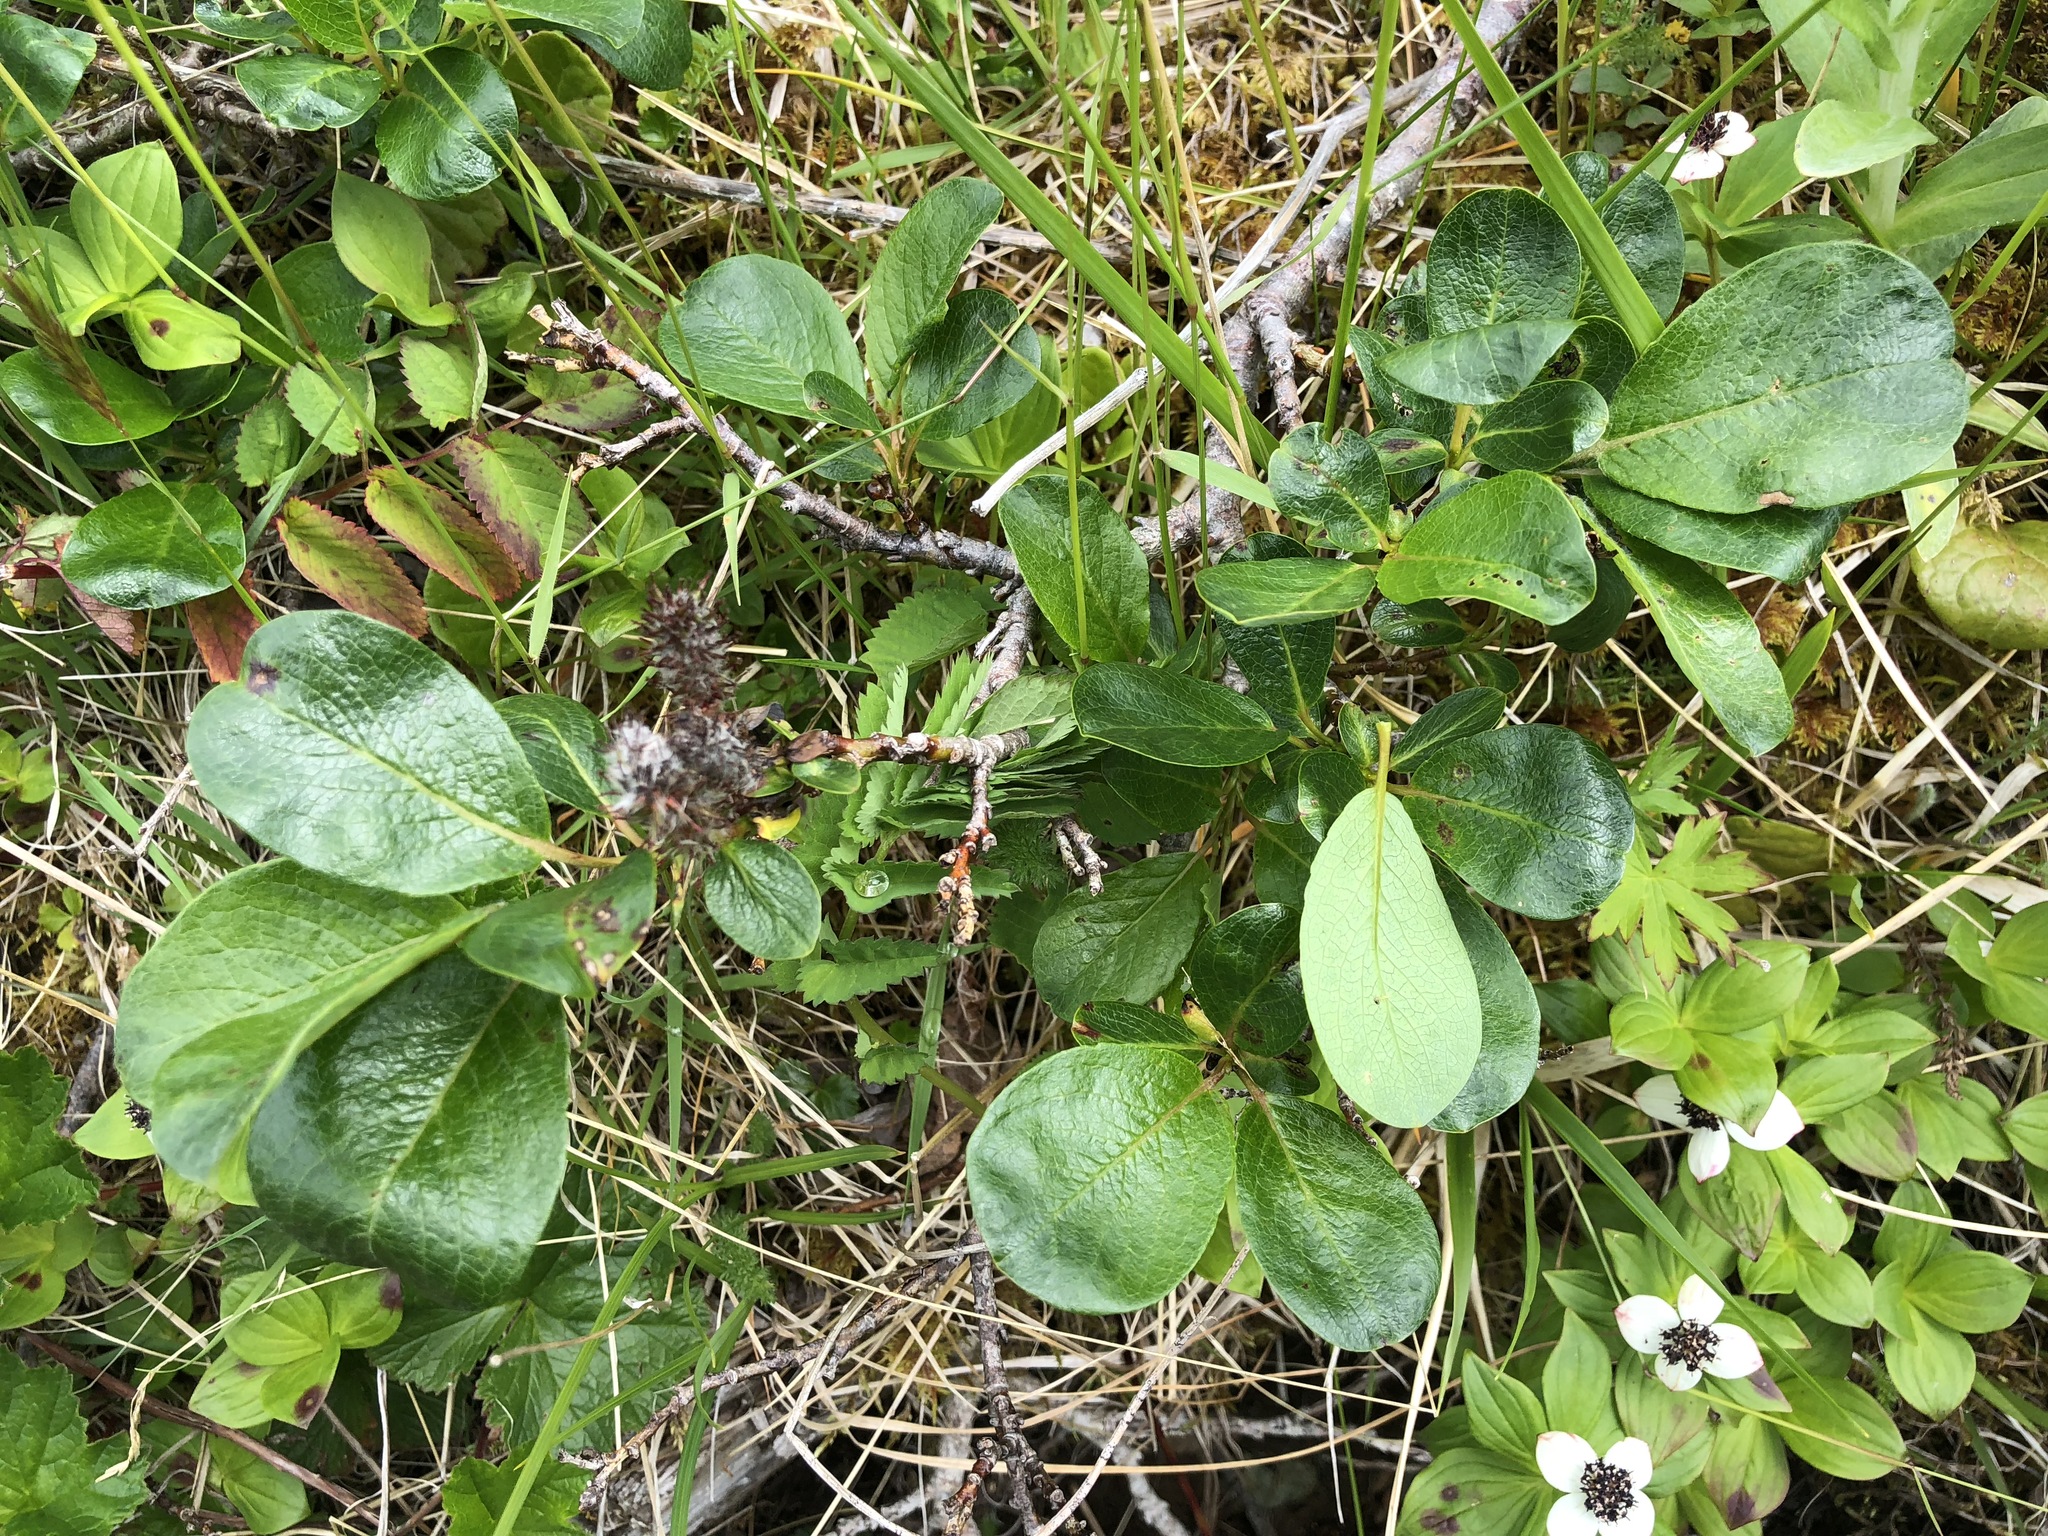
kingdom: Plantae
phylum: Tracheophyta
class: Magnoliopsida
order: Malpighiales
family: Salicaceae
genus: Salix
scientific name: Salix arctica
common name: Arctic willow
